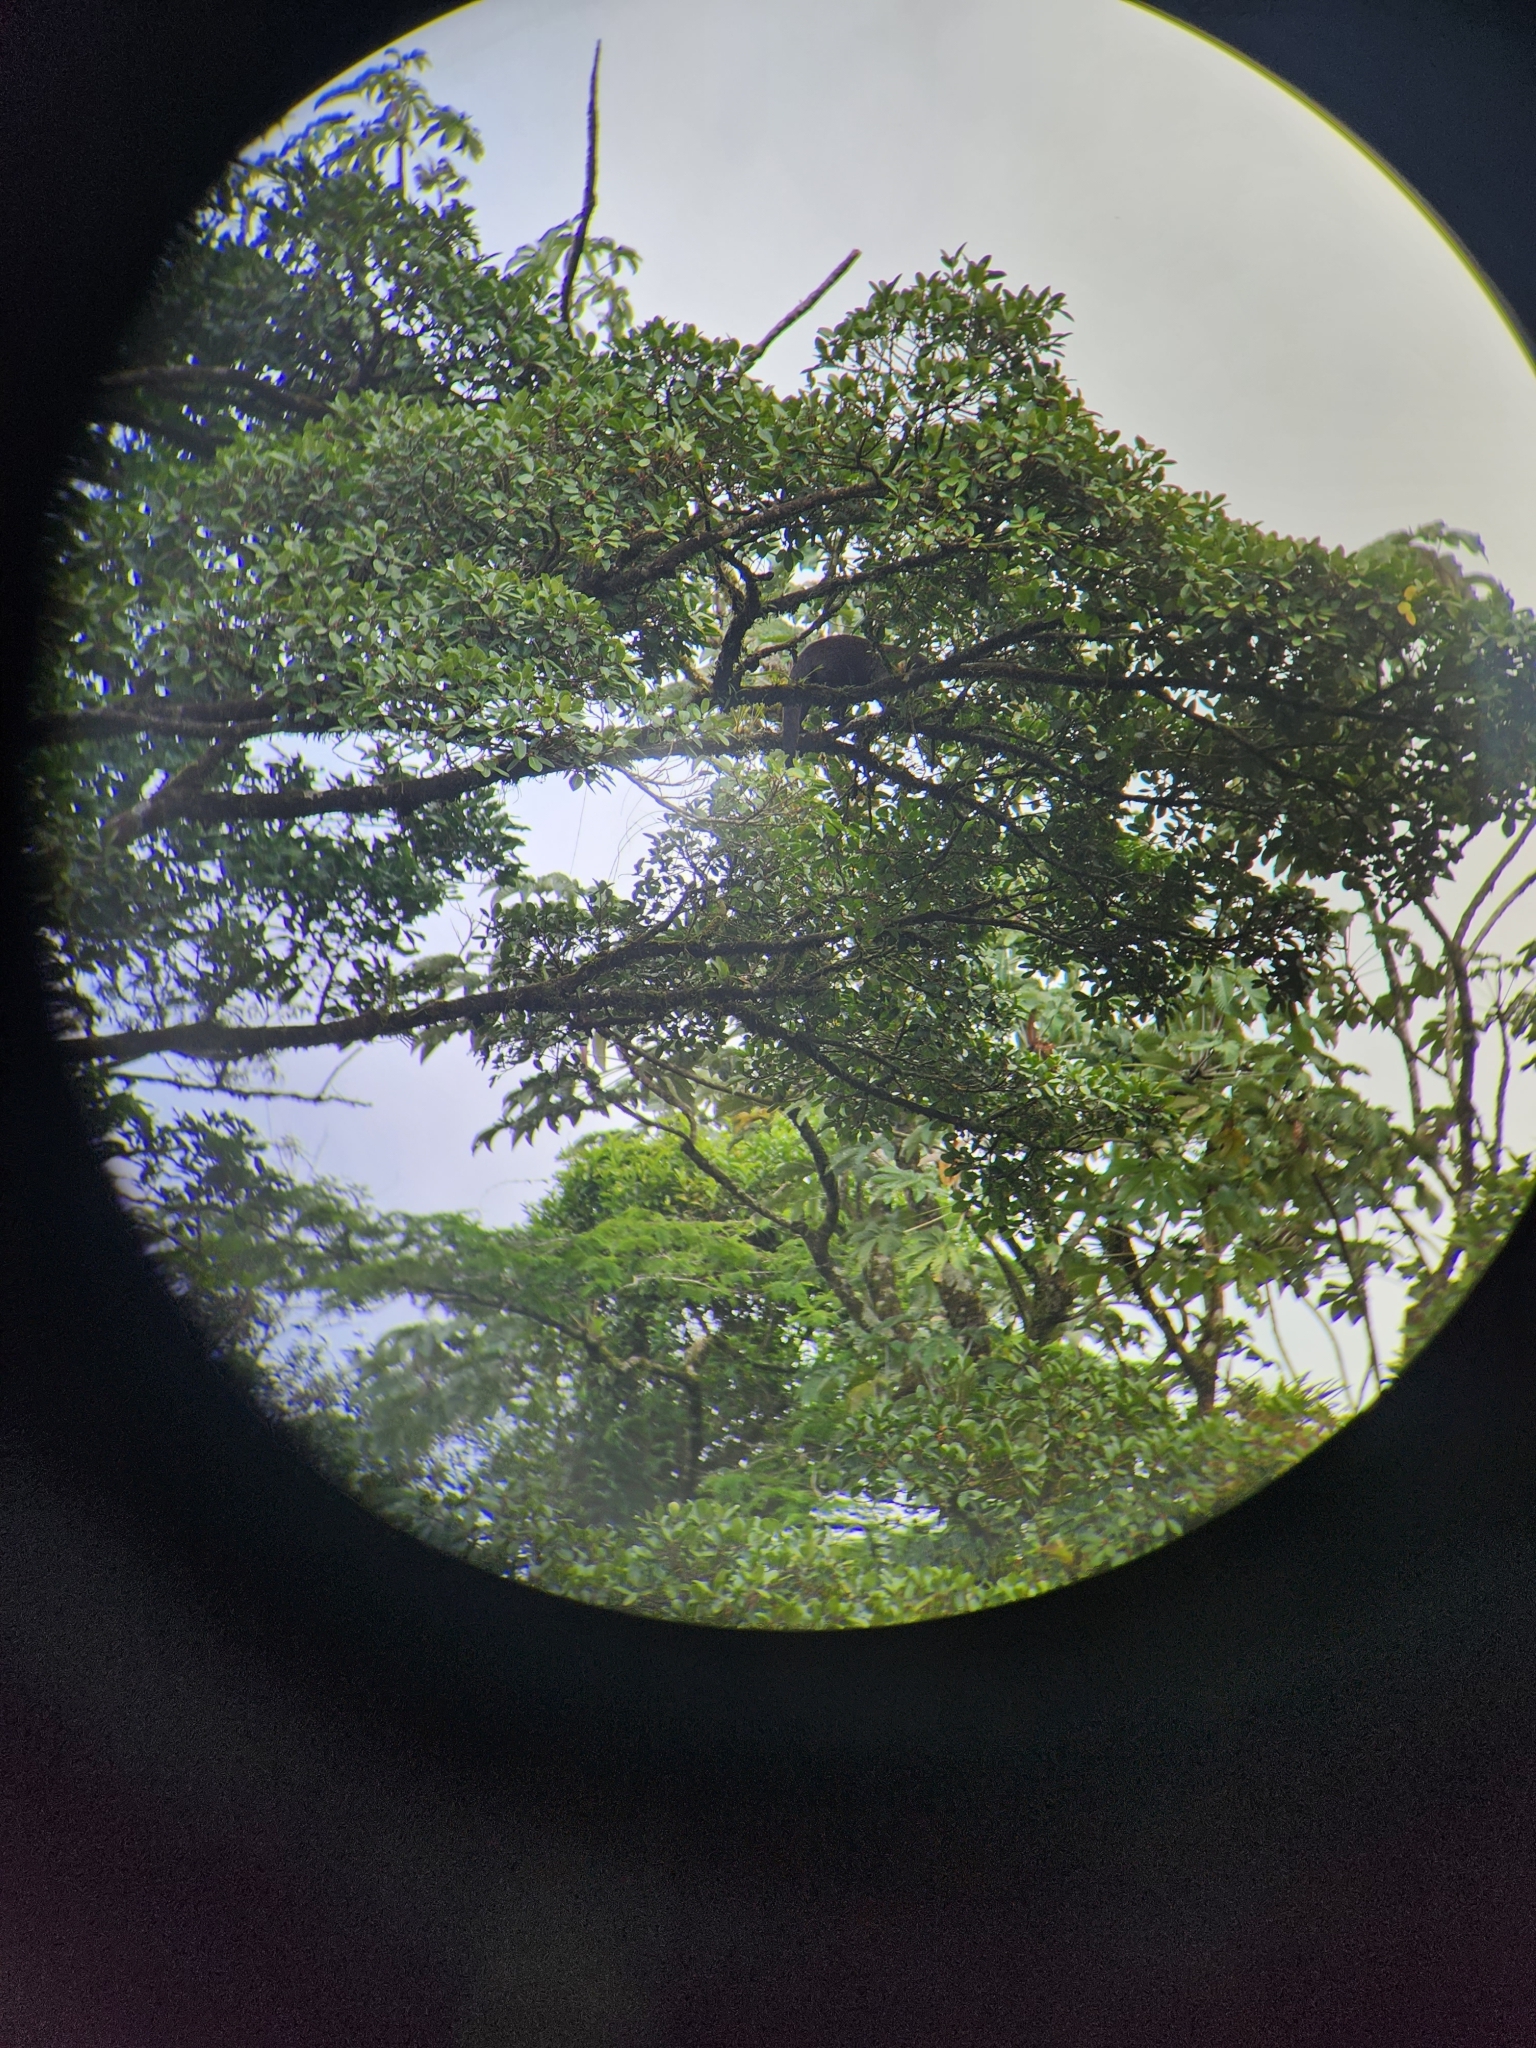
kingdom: Animalia
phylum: Chordata
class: Mammalia
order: Carnivora
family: Procyonidae
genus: Nasua
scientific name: Nasua narica
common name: White-nosed coati
